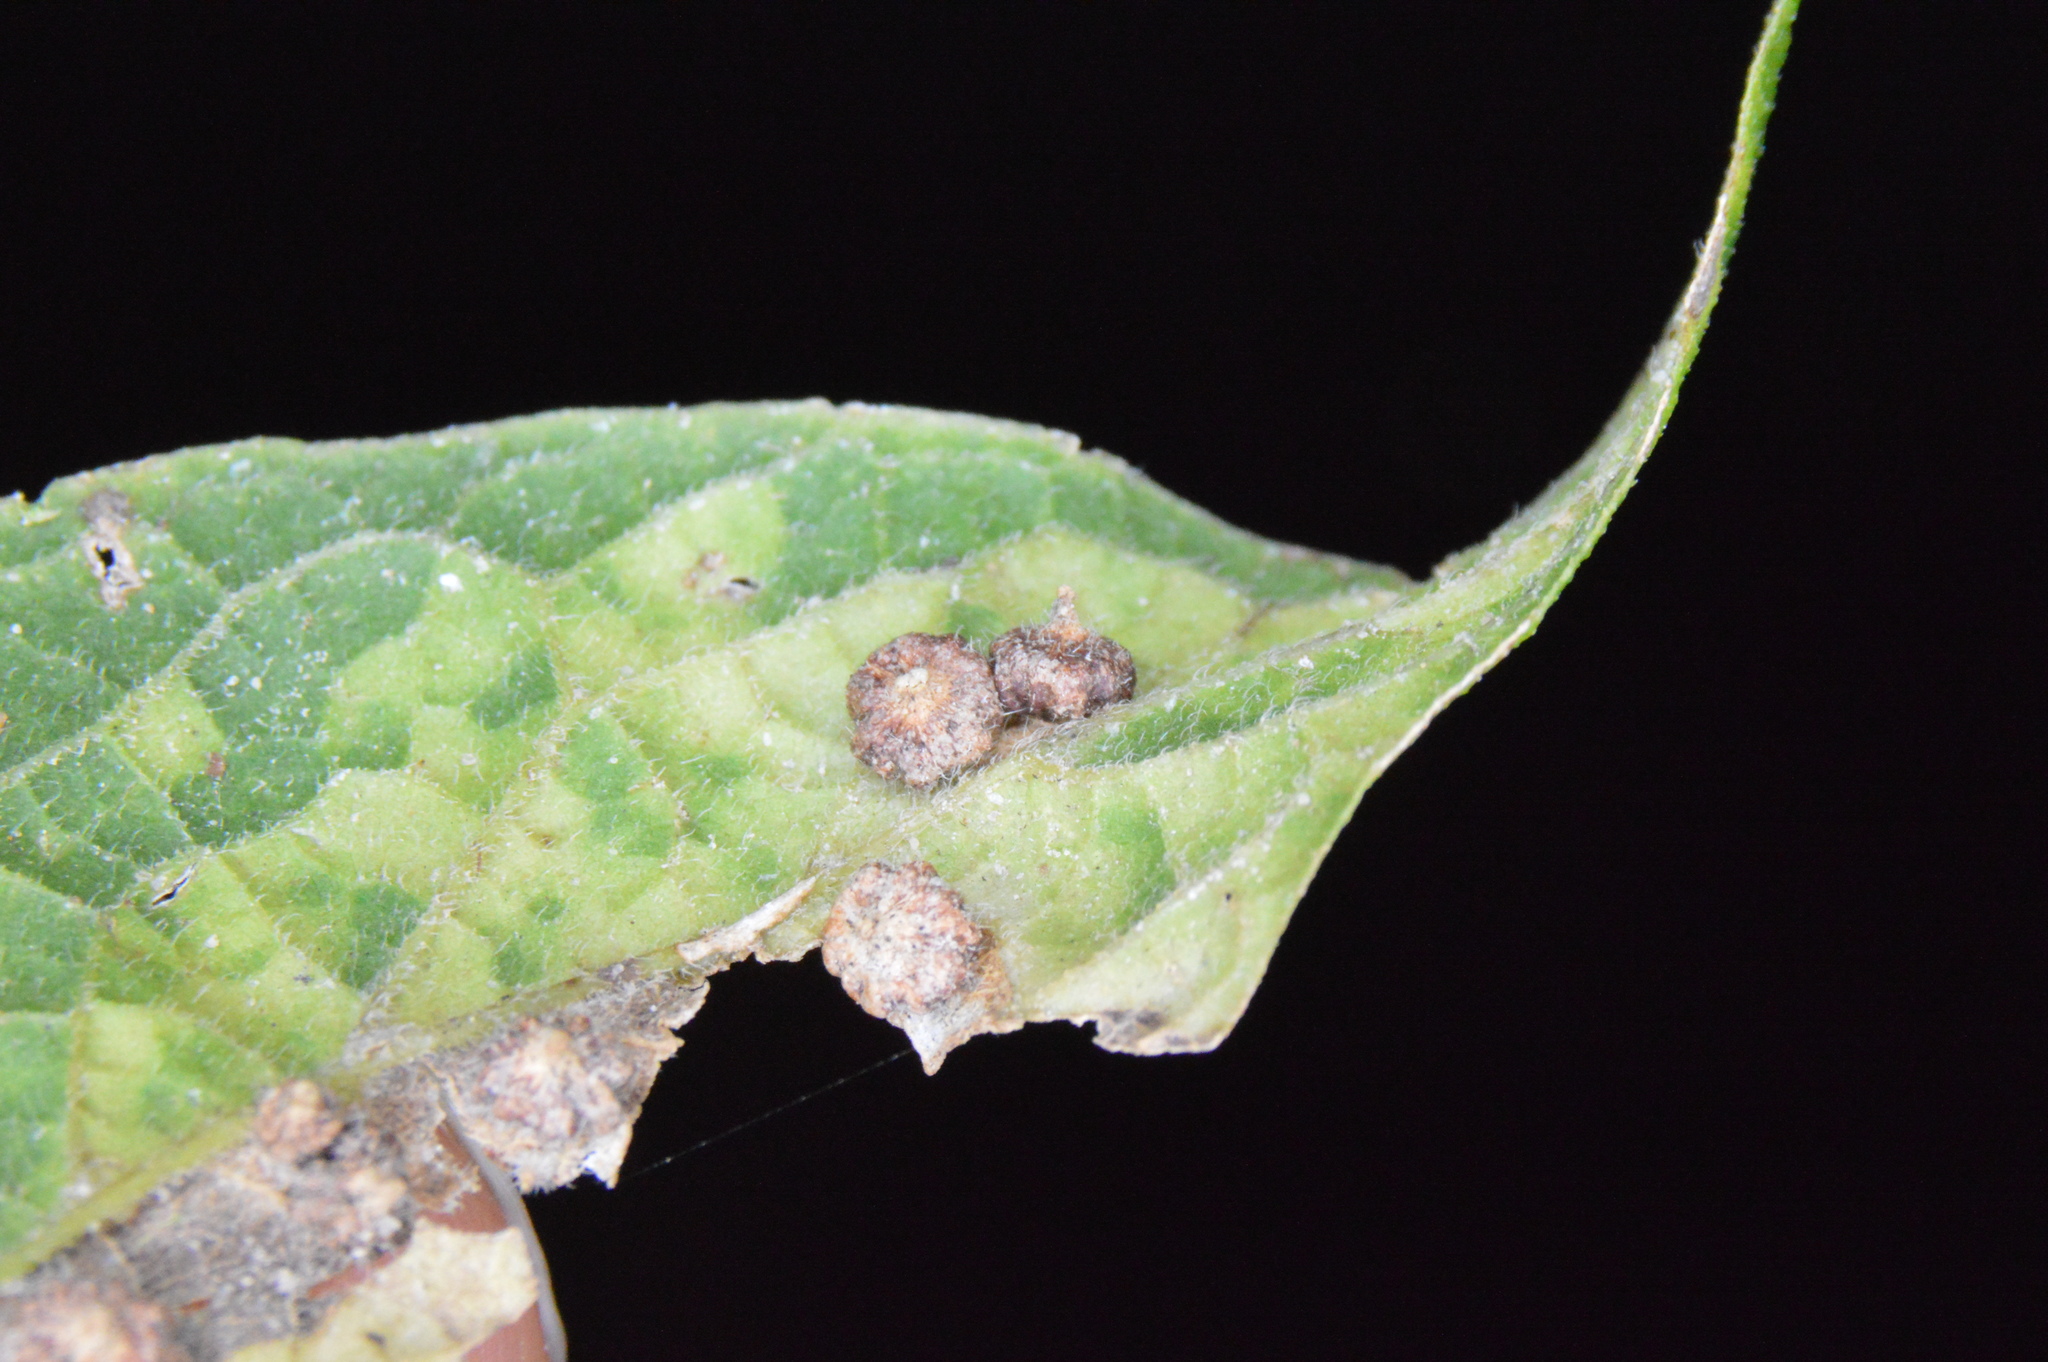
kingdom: Animalia
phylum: Arthropoda
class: Insecta
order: Diptera
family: Cecidomyiidae
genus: Celticecis
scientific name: Celticecis capsularis
